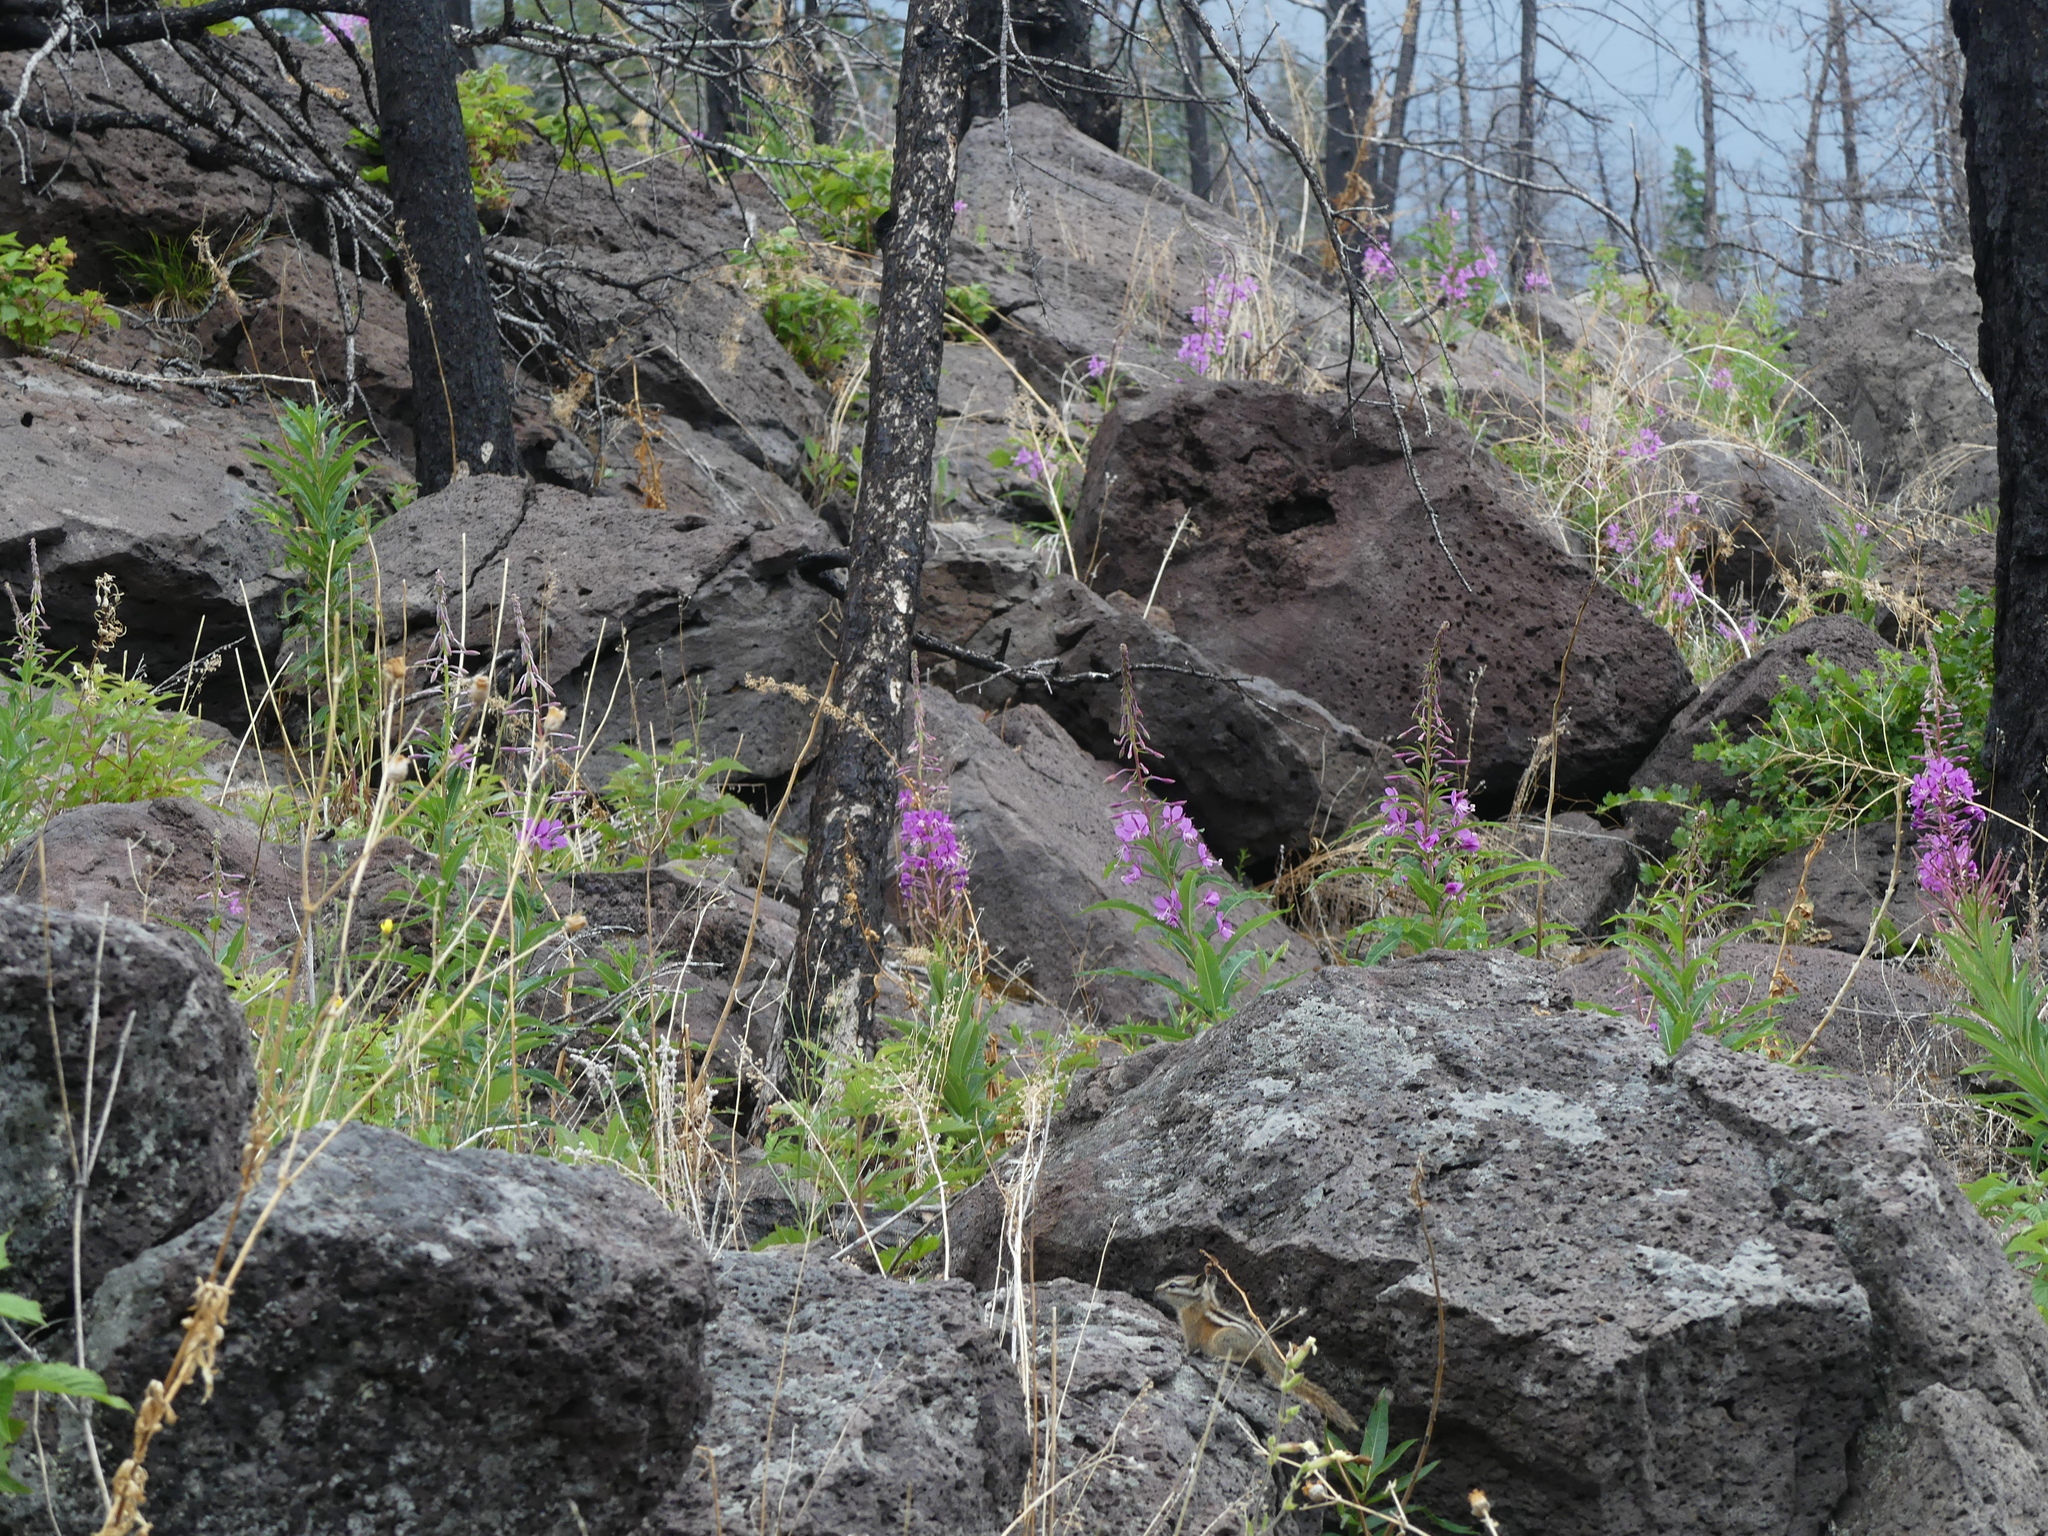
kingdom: Plantae
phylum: Tracheophyta
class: Magnoliopsida
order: Myrtales
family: Onagraceae
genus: Chamaenerion
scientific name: Chamaenerion angustifolium
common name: Fireweed
